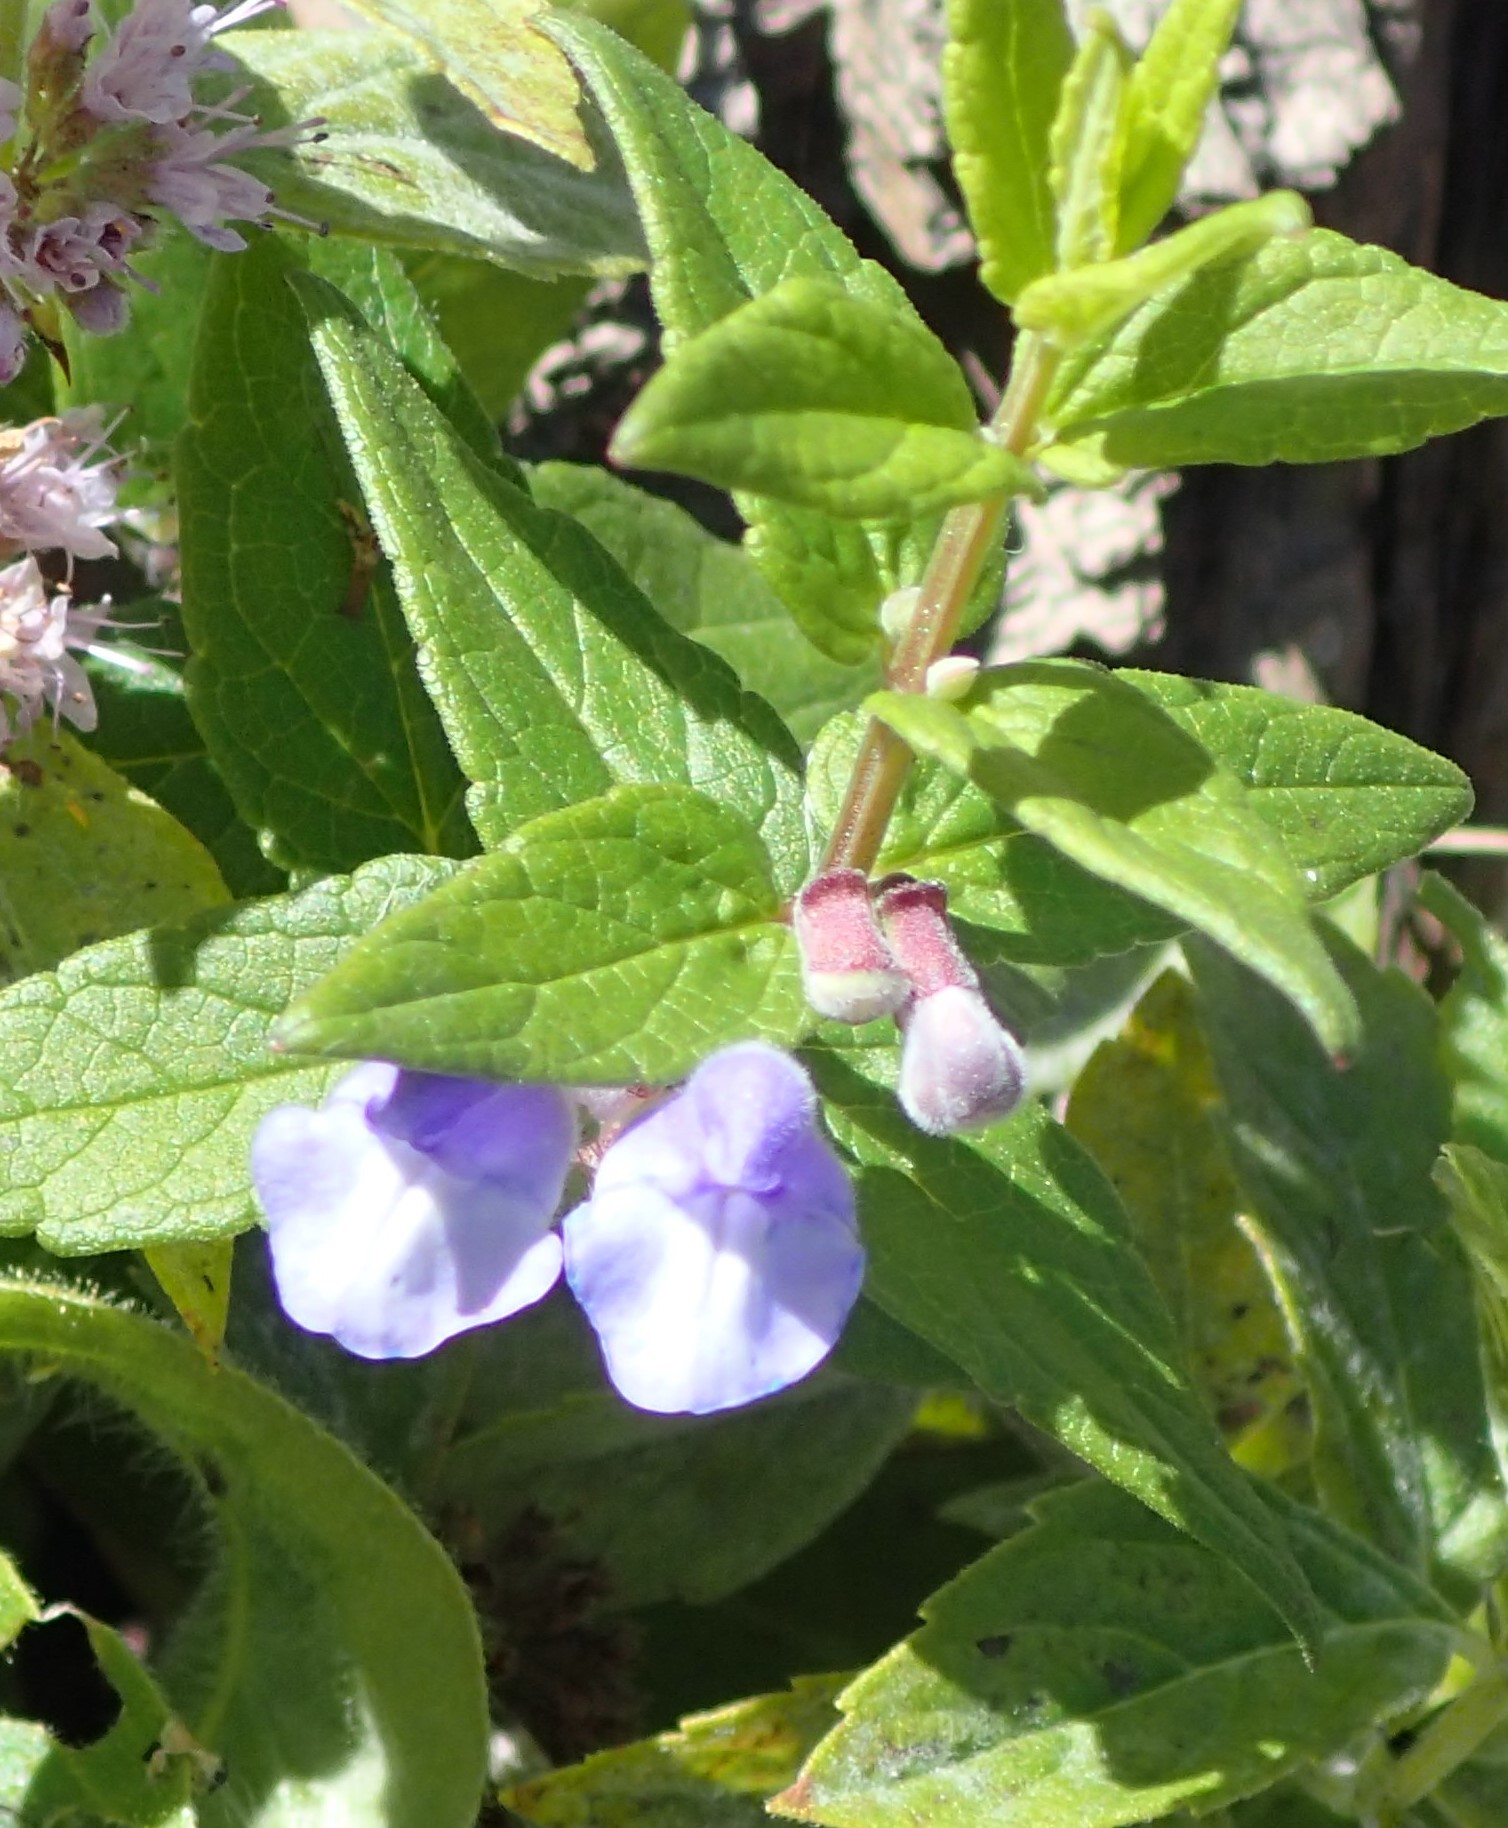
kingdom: Plantae
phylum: Tracheophyta
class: Magnoliopsida
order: Lamiales
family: Lamiaceae
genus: Scutellaria
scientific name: Scutellaria galericulata
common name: Skullcap
